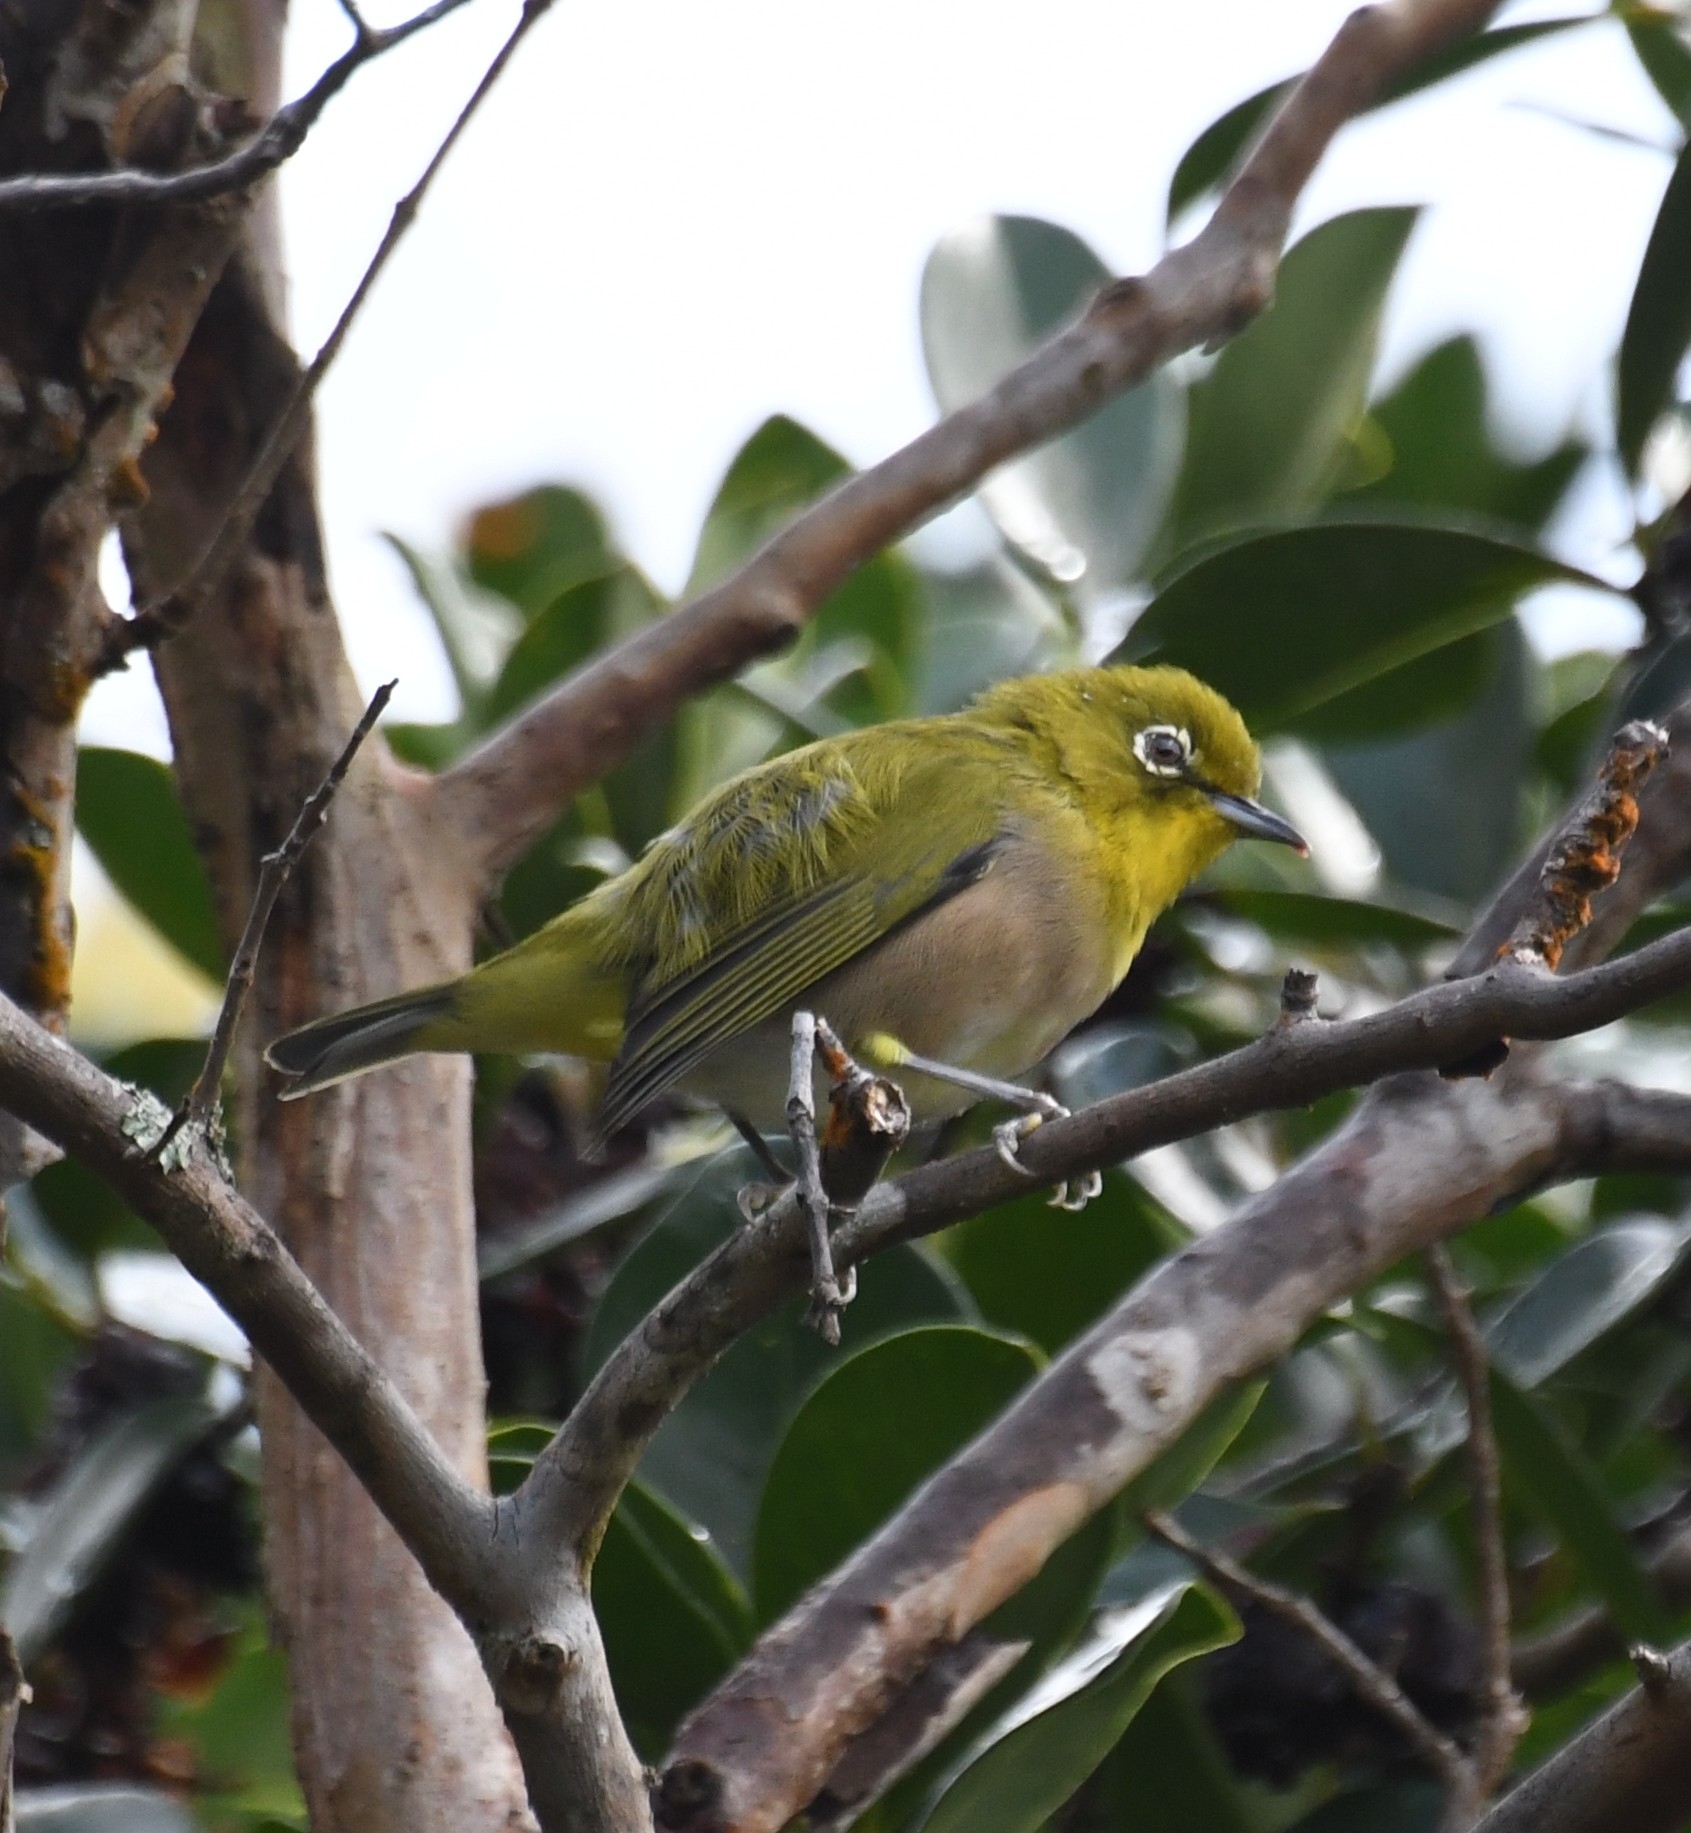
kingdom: Animalia
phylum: Chordata
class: Aves
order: Passeriformes
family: Zosteropidae
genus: Zosterops
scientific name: Zosterops japonicus
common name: Japanese white-eye
